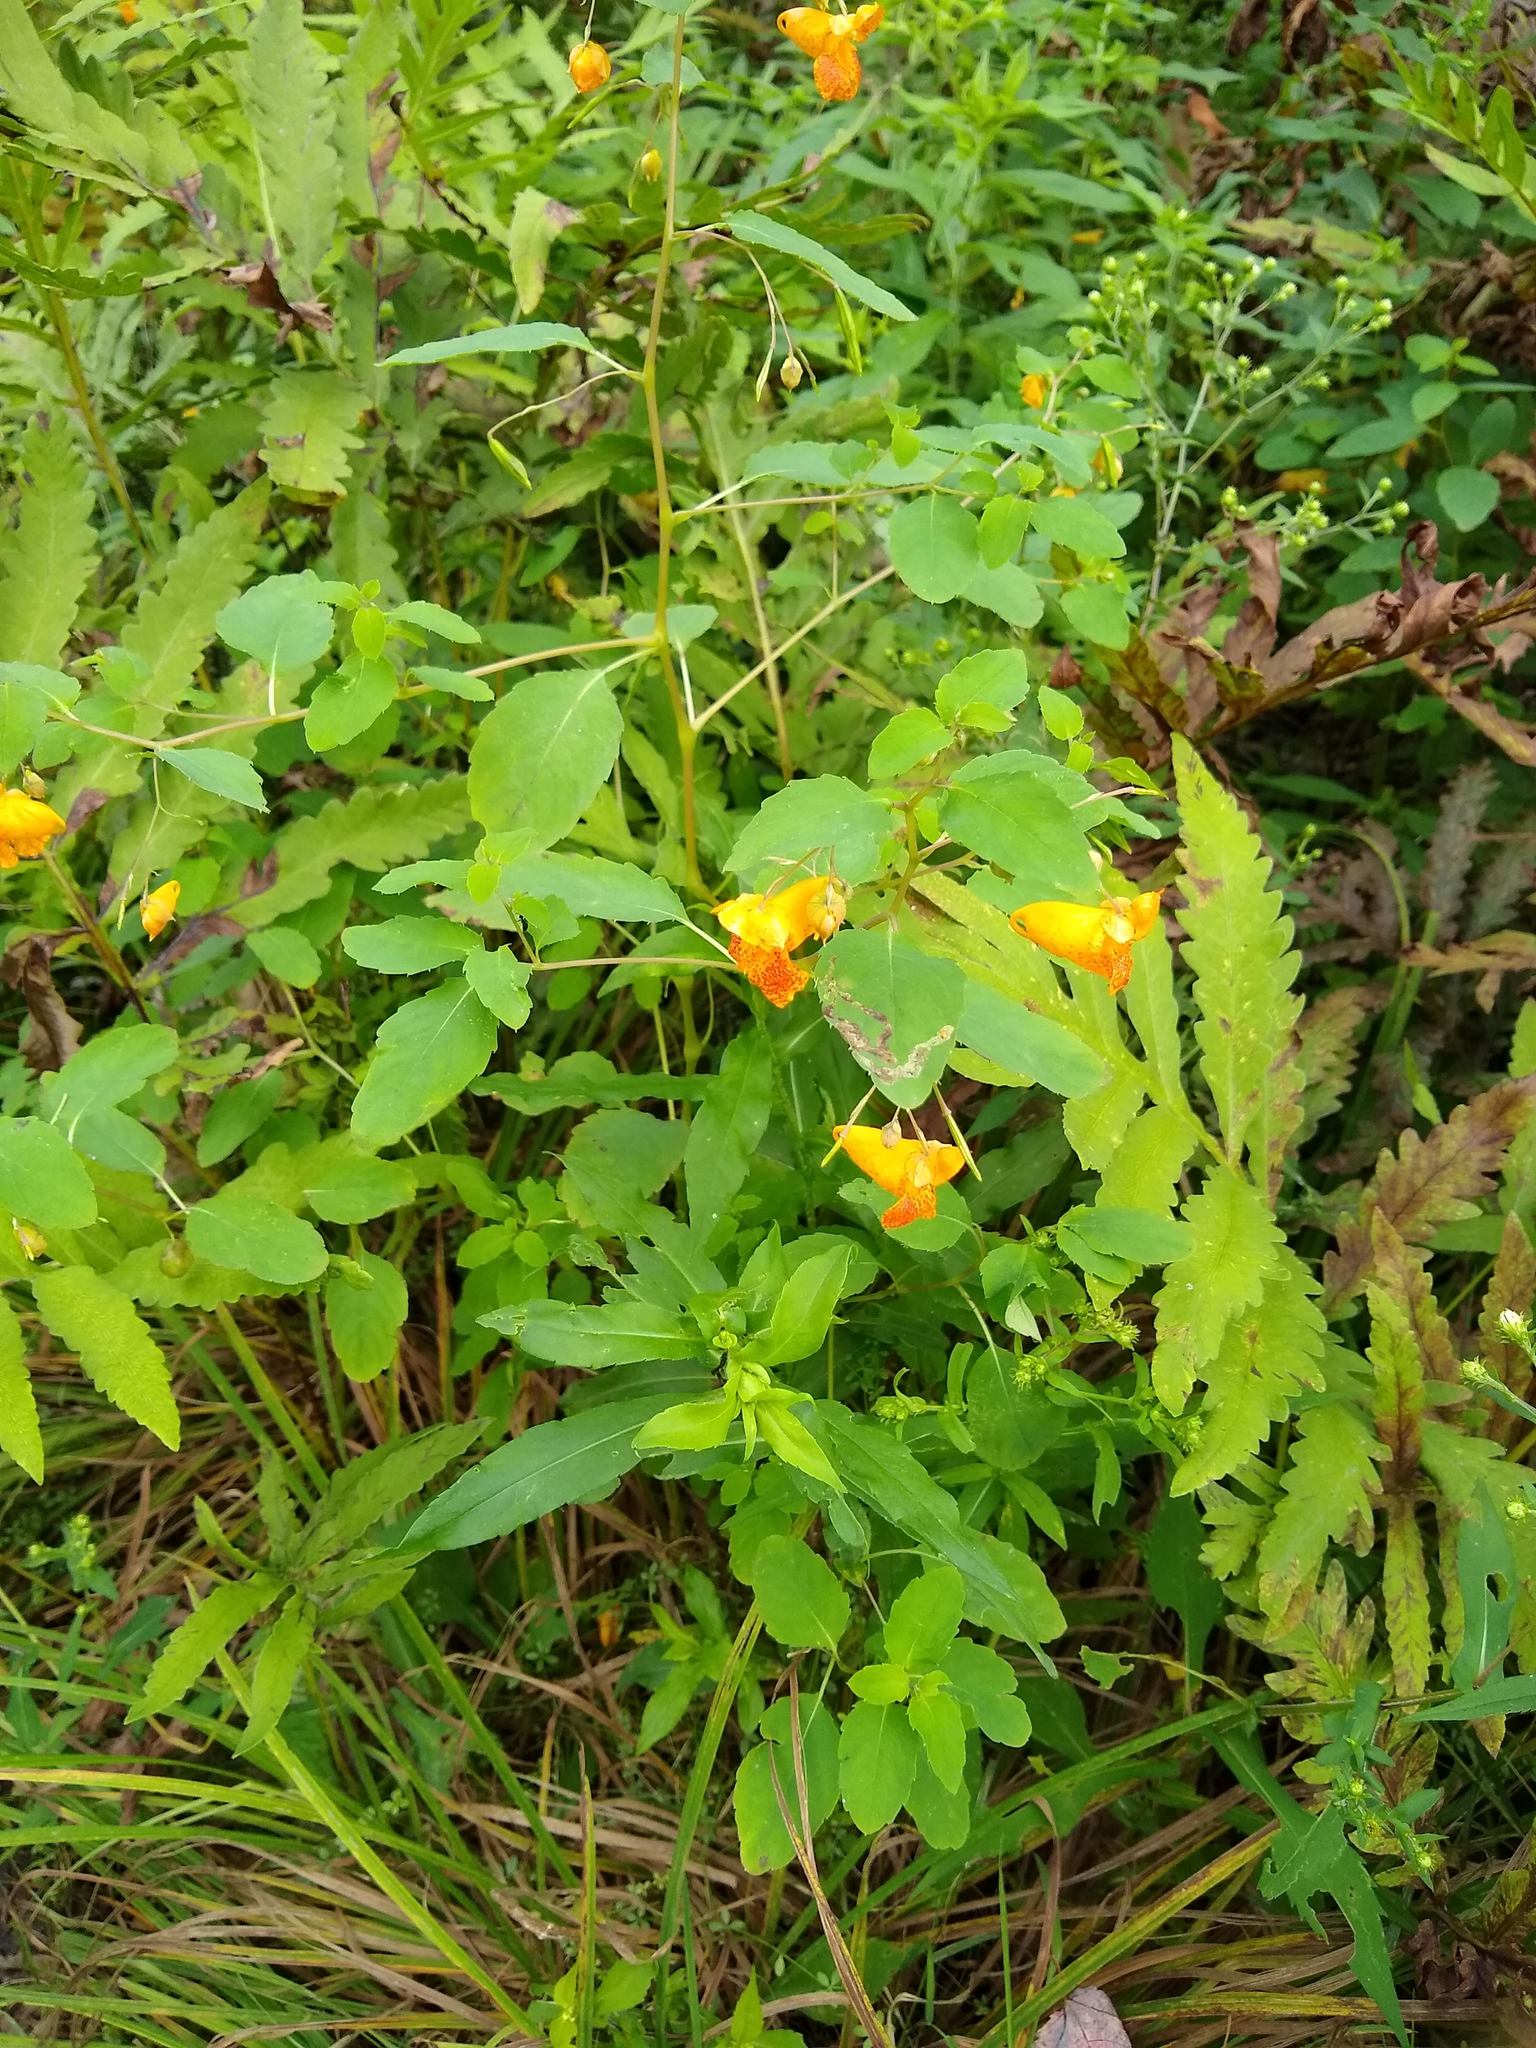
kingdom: Plantae
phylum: Tracheophyta
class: Magnoliopsida
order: Ericales
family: Balsaminaceae
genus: Impatiens
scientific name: Impatiens capensis
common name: Orange balsam
